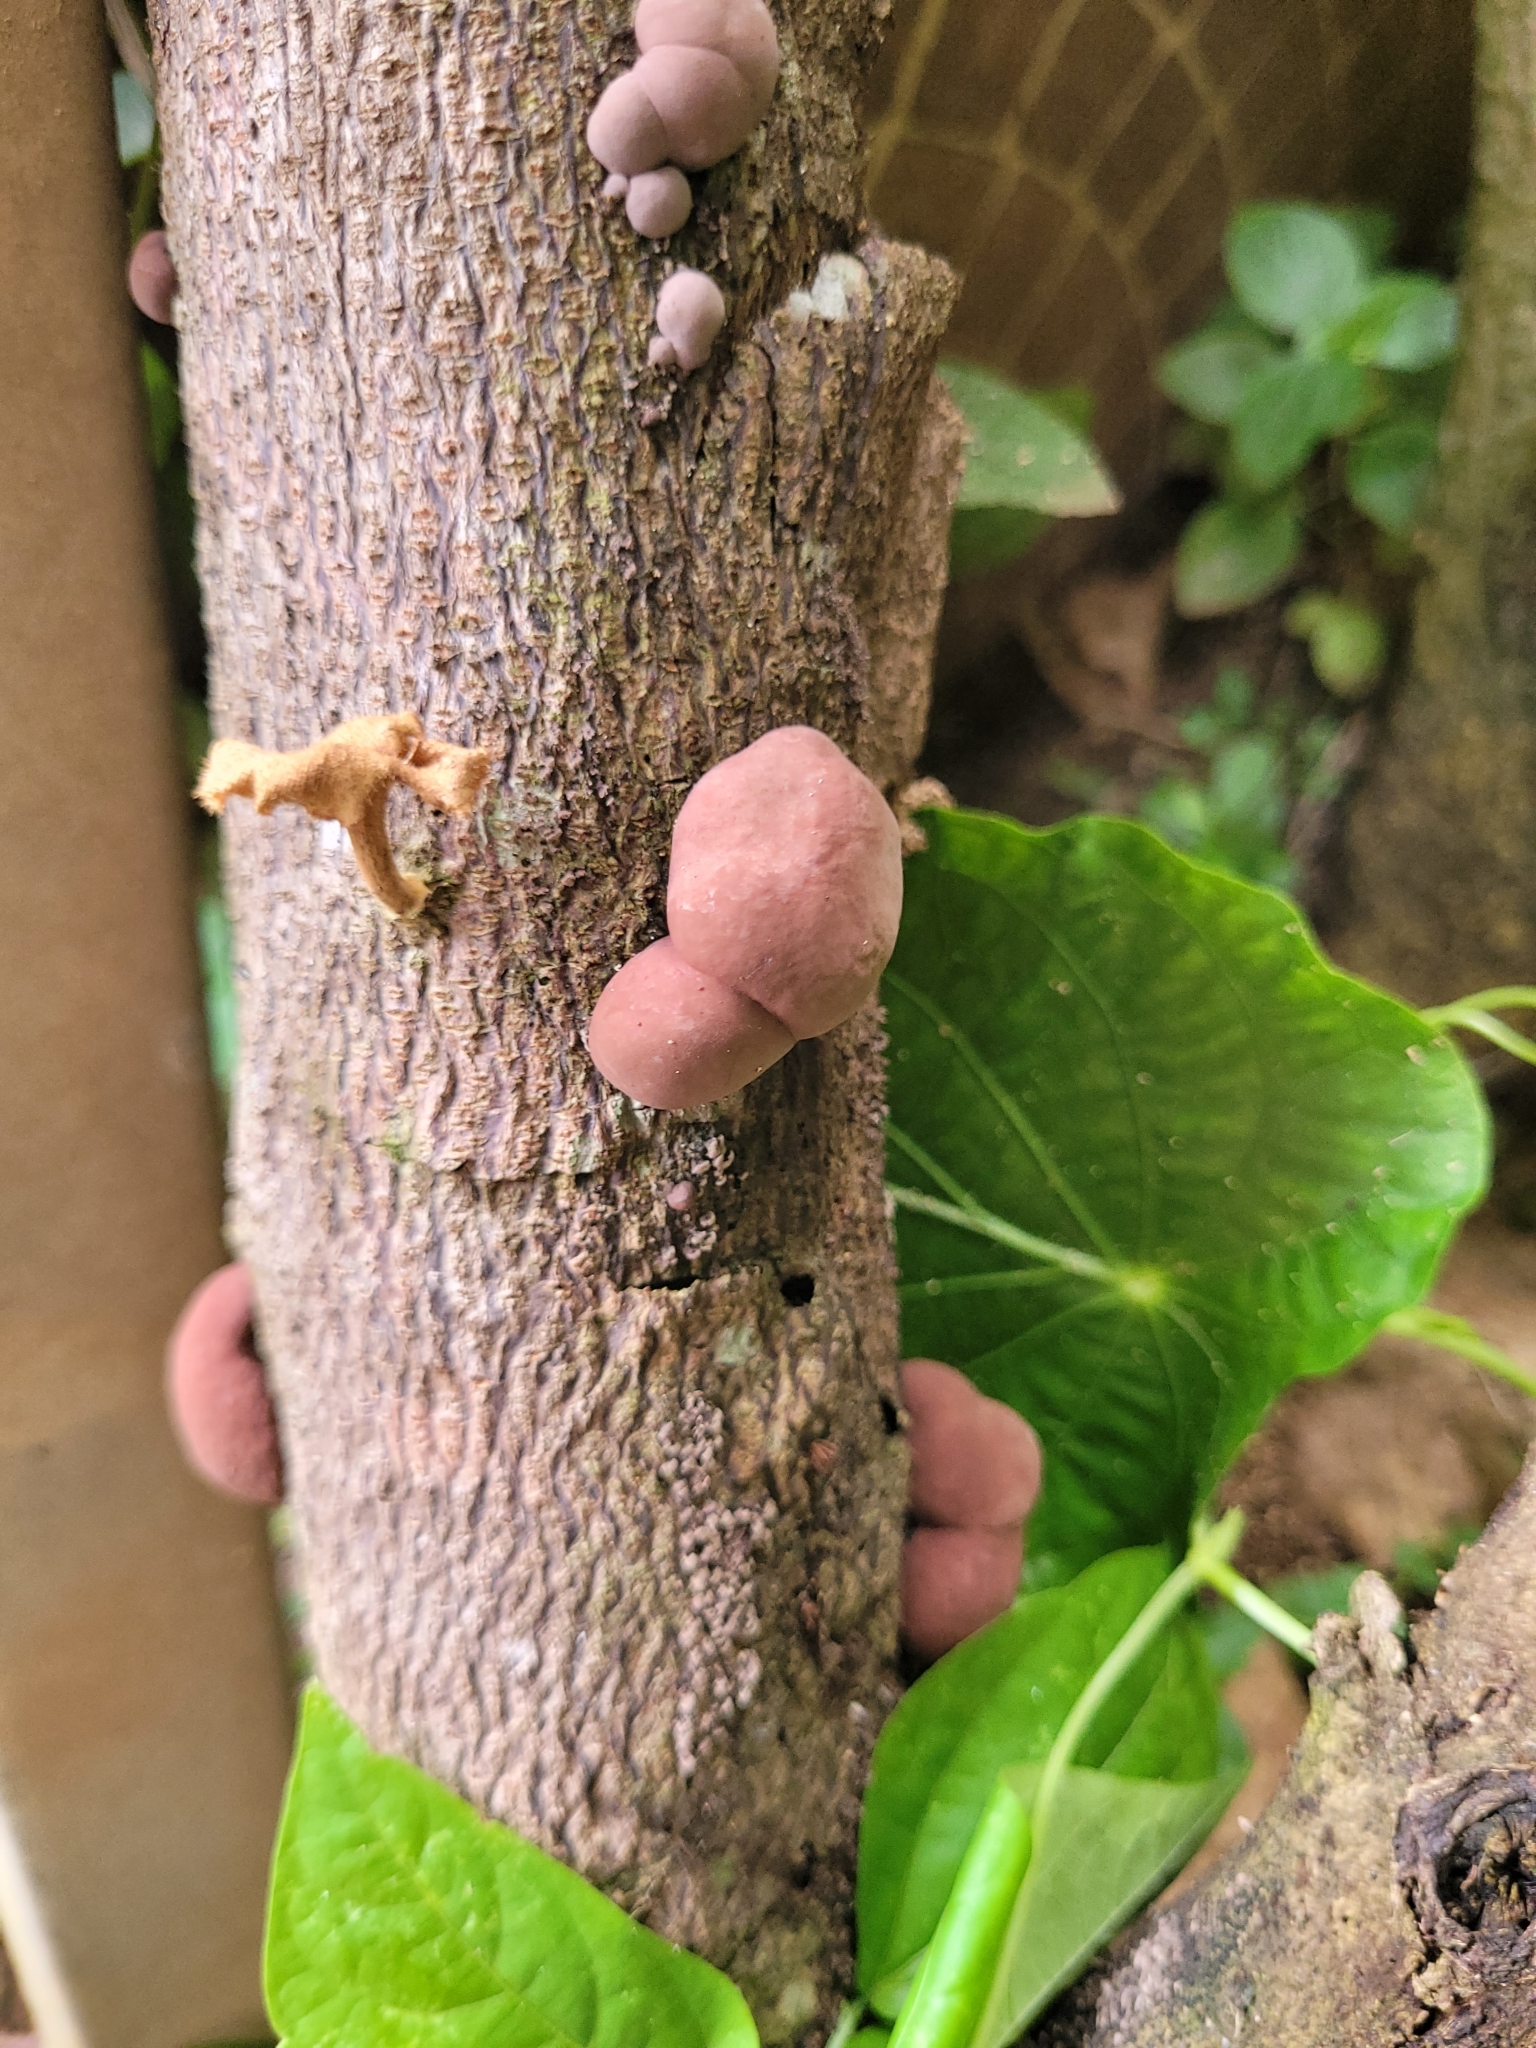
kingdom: Protozoa
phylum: Mycetozoa
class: Myxomycetes
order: Cribrariales
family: Tubiferaceae
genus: Lycogala
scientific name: Lycogala epidendrum
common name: Wolf's milk
